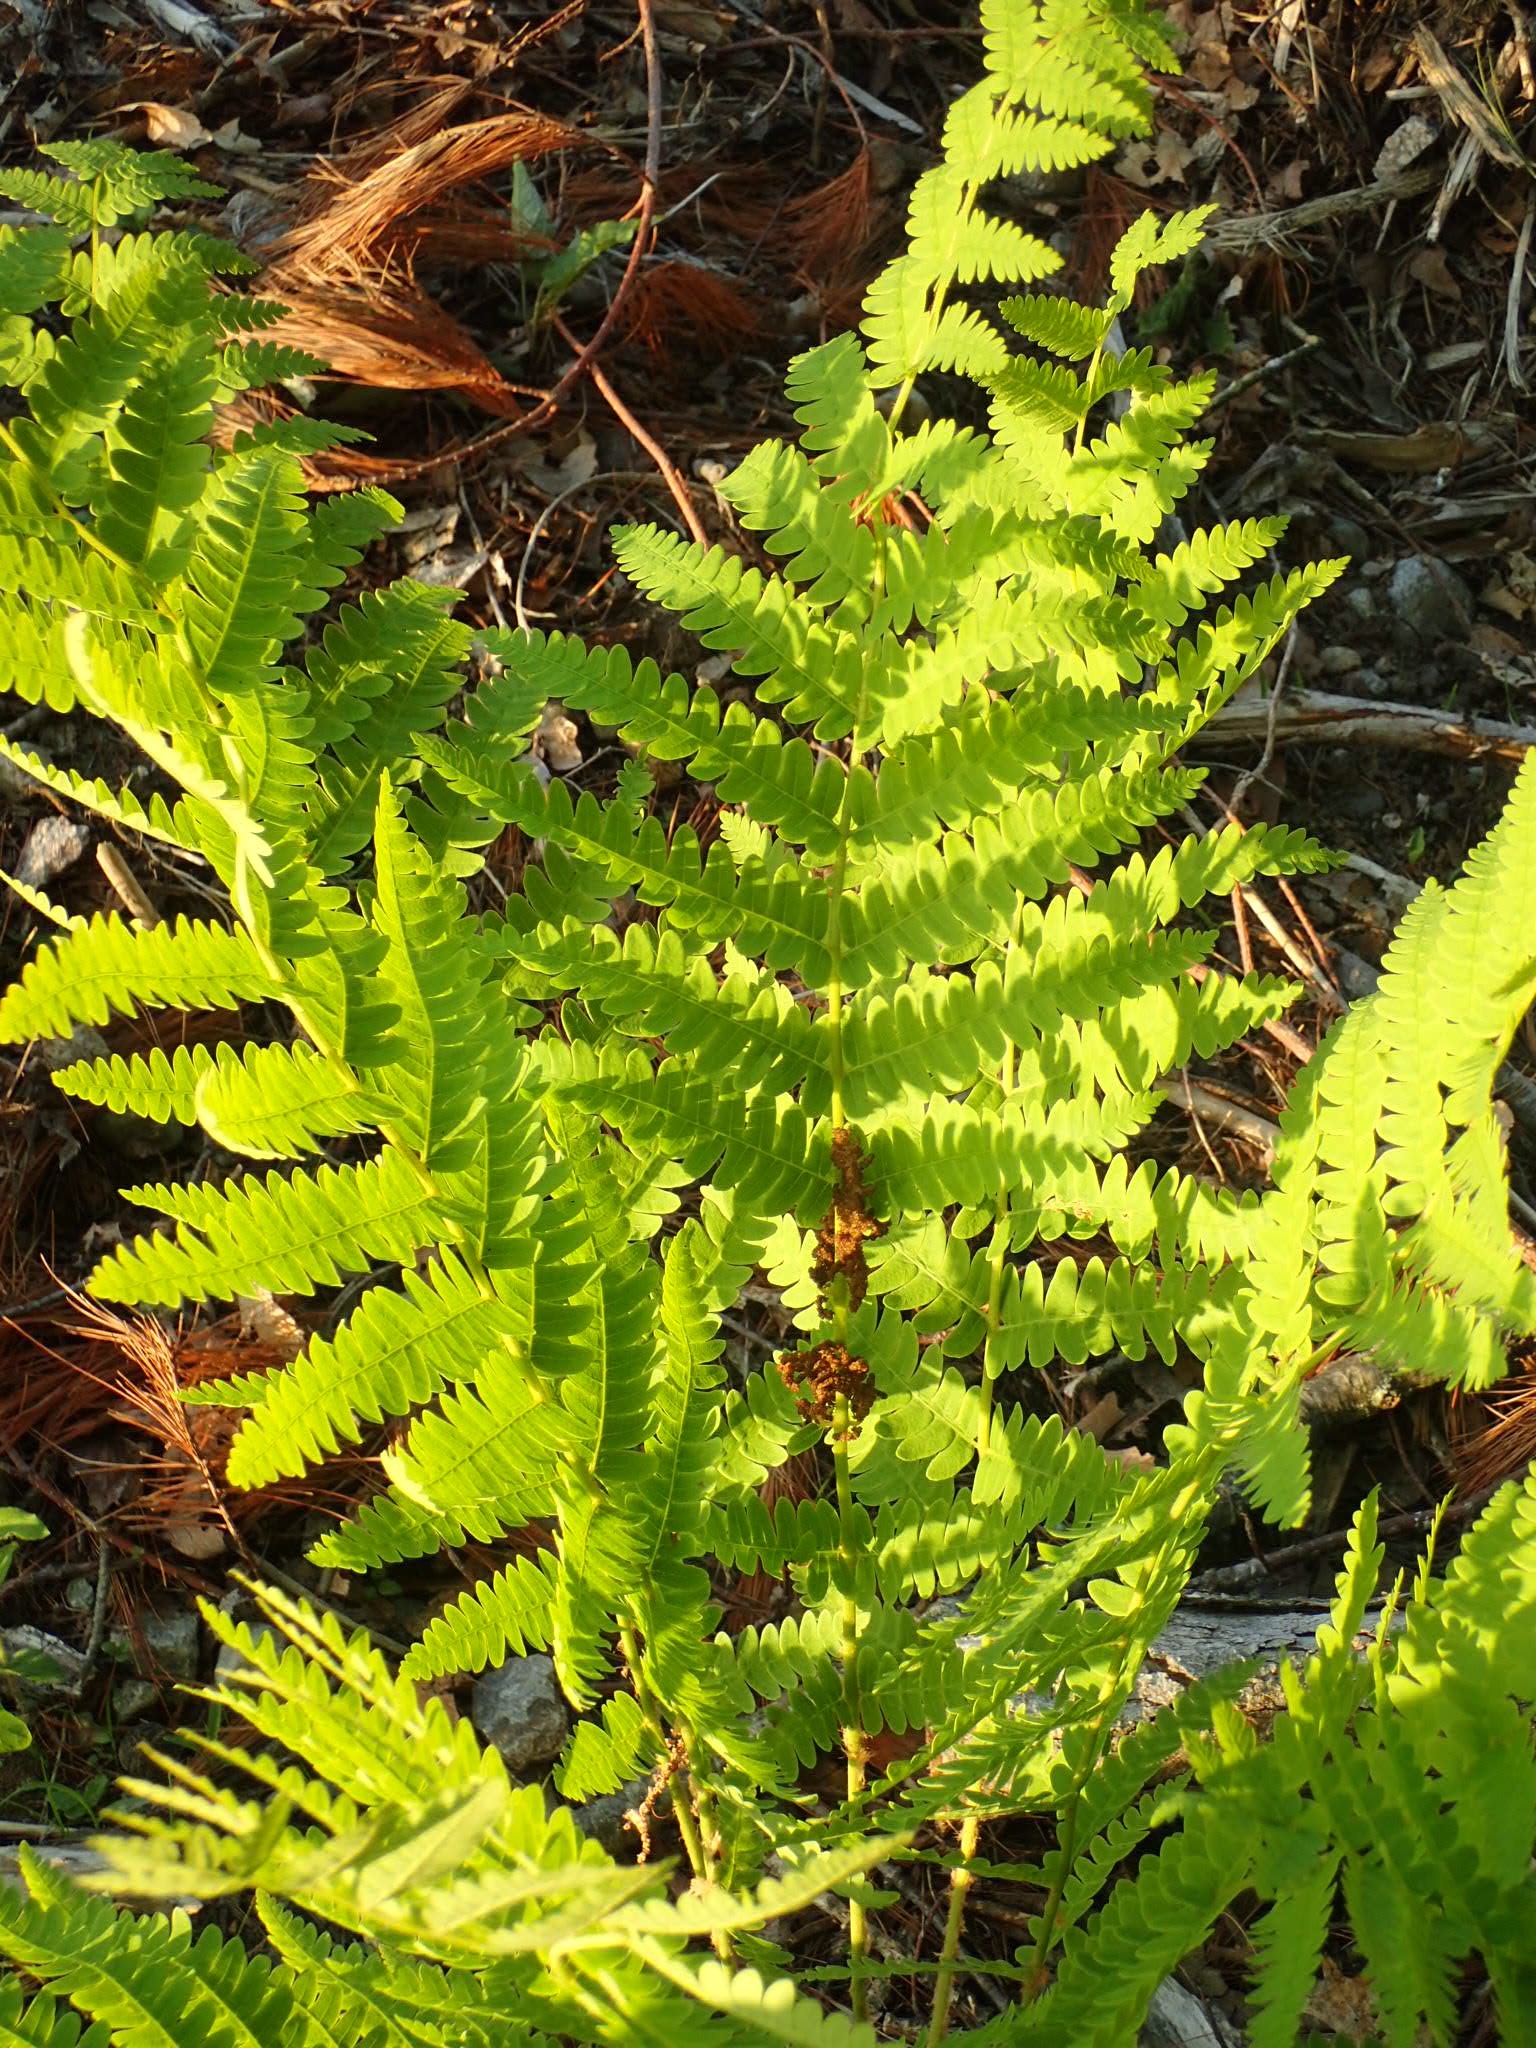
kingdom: Plantae
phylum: Tracheophyta
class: Polypodiopsida
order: Osmundales
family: Osmundaceae
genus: Claytosmunda
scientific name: Claytosmunda claytoniana
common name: Clayton's fern
